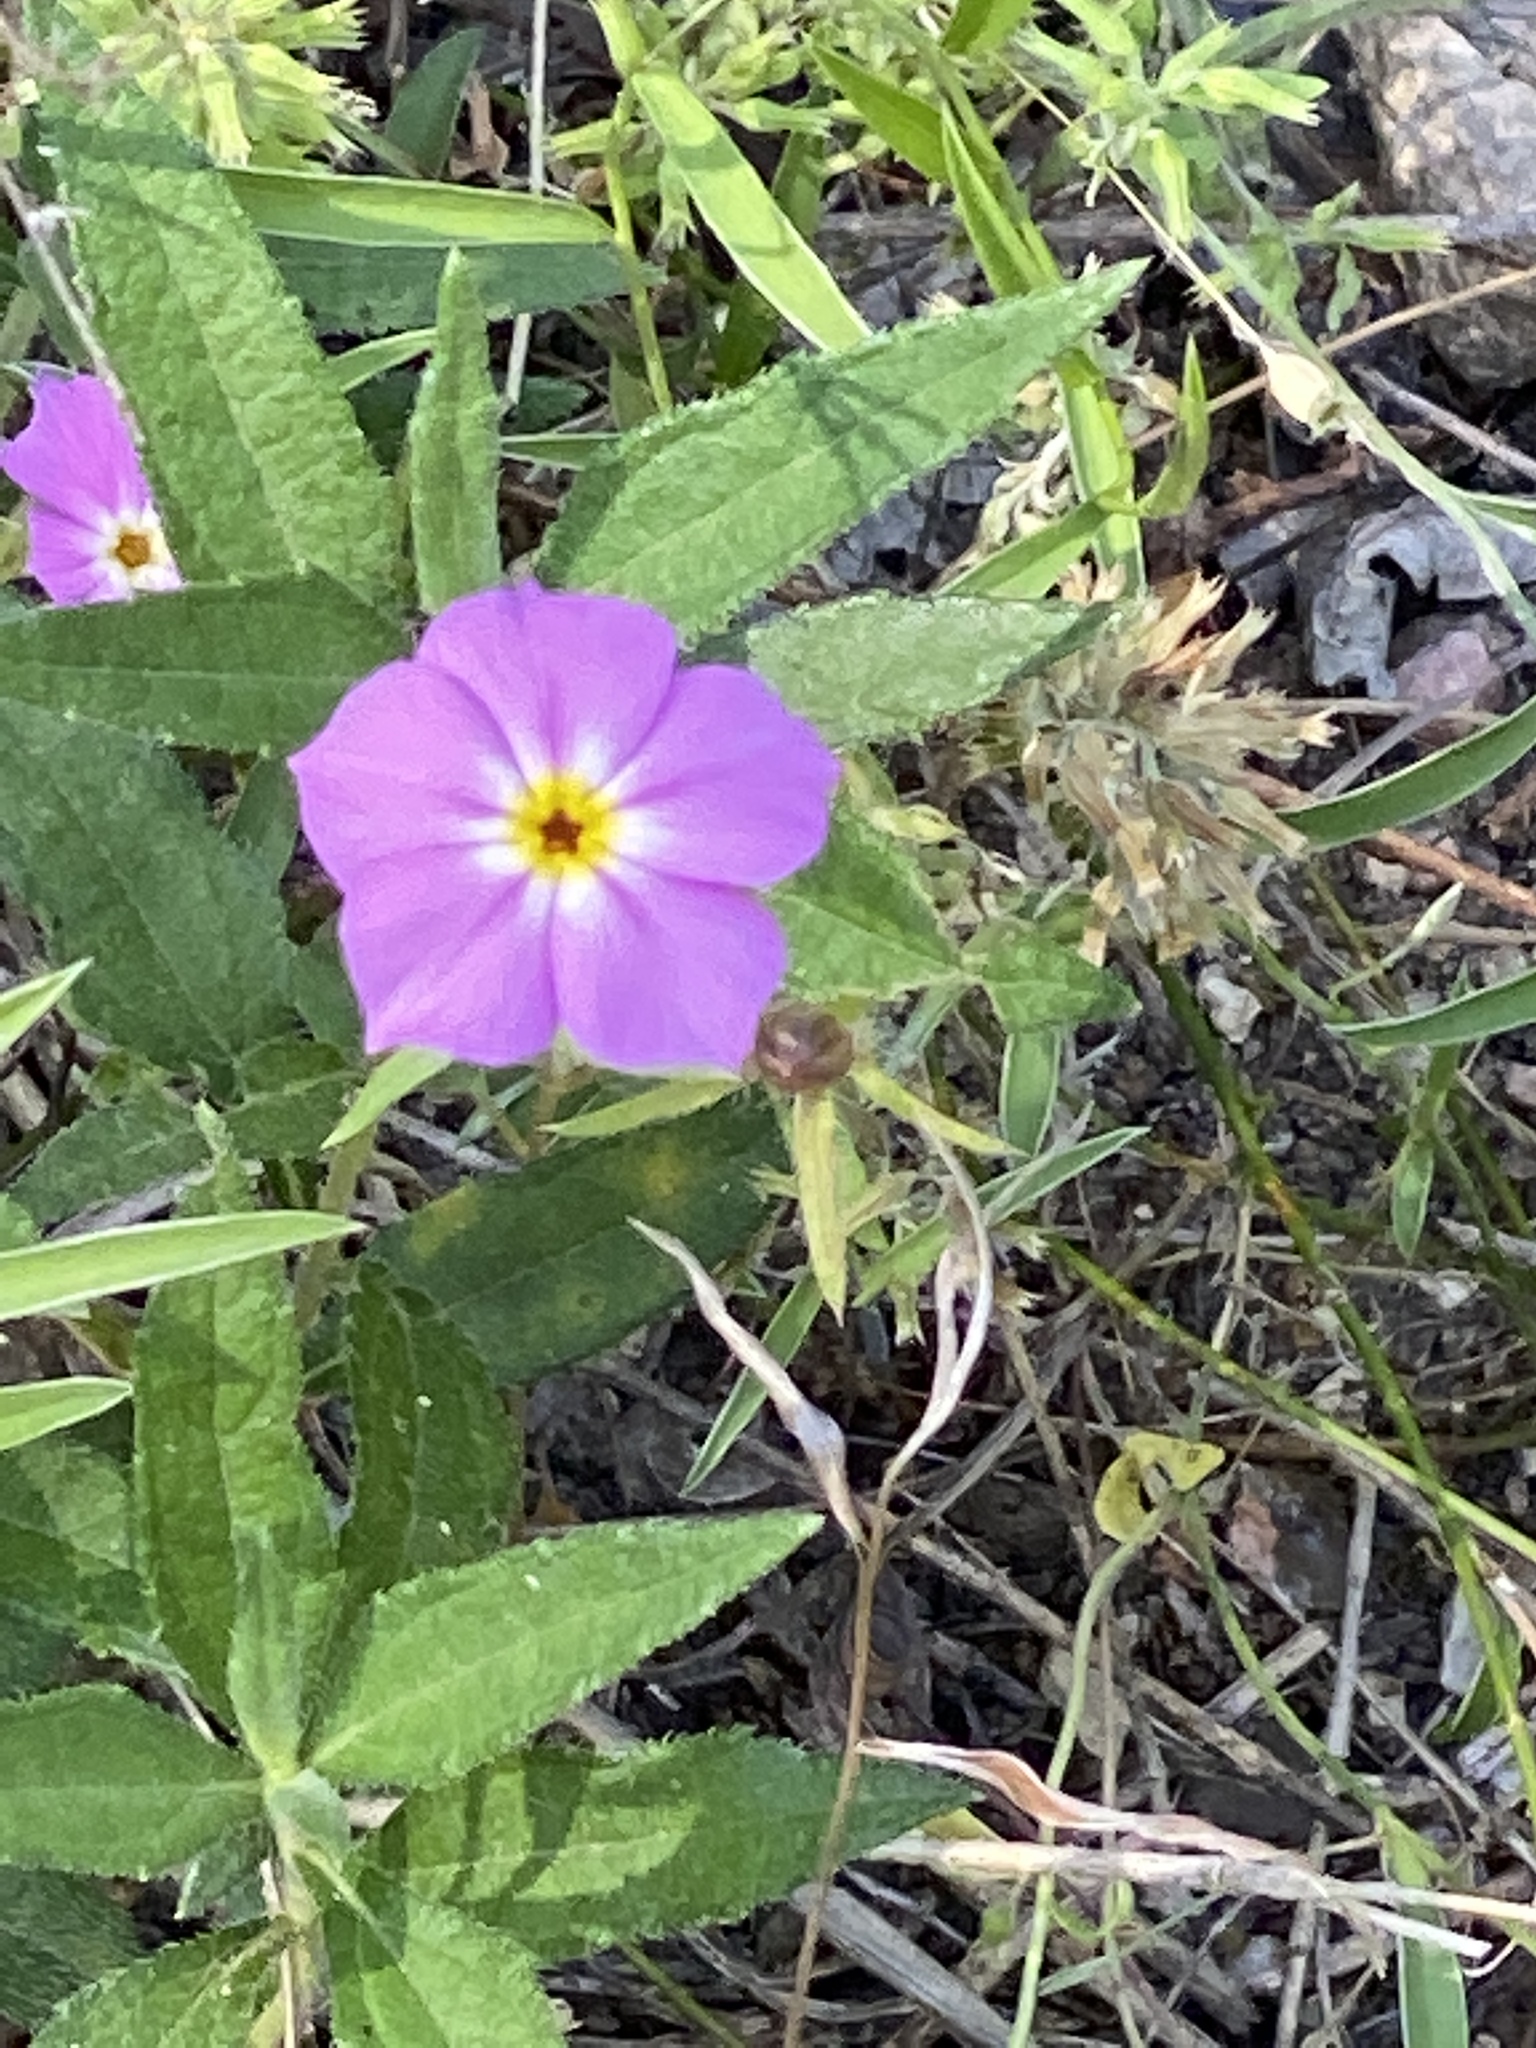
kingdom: Plantae
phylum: Tracheophyta
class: Magnoliopsida
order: Ericales
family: Polemoniaceae
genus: Phlox
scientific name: Phlox roemeriana
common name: Roemer's phlox
